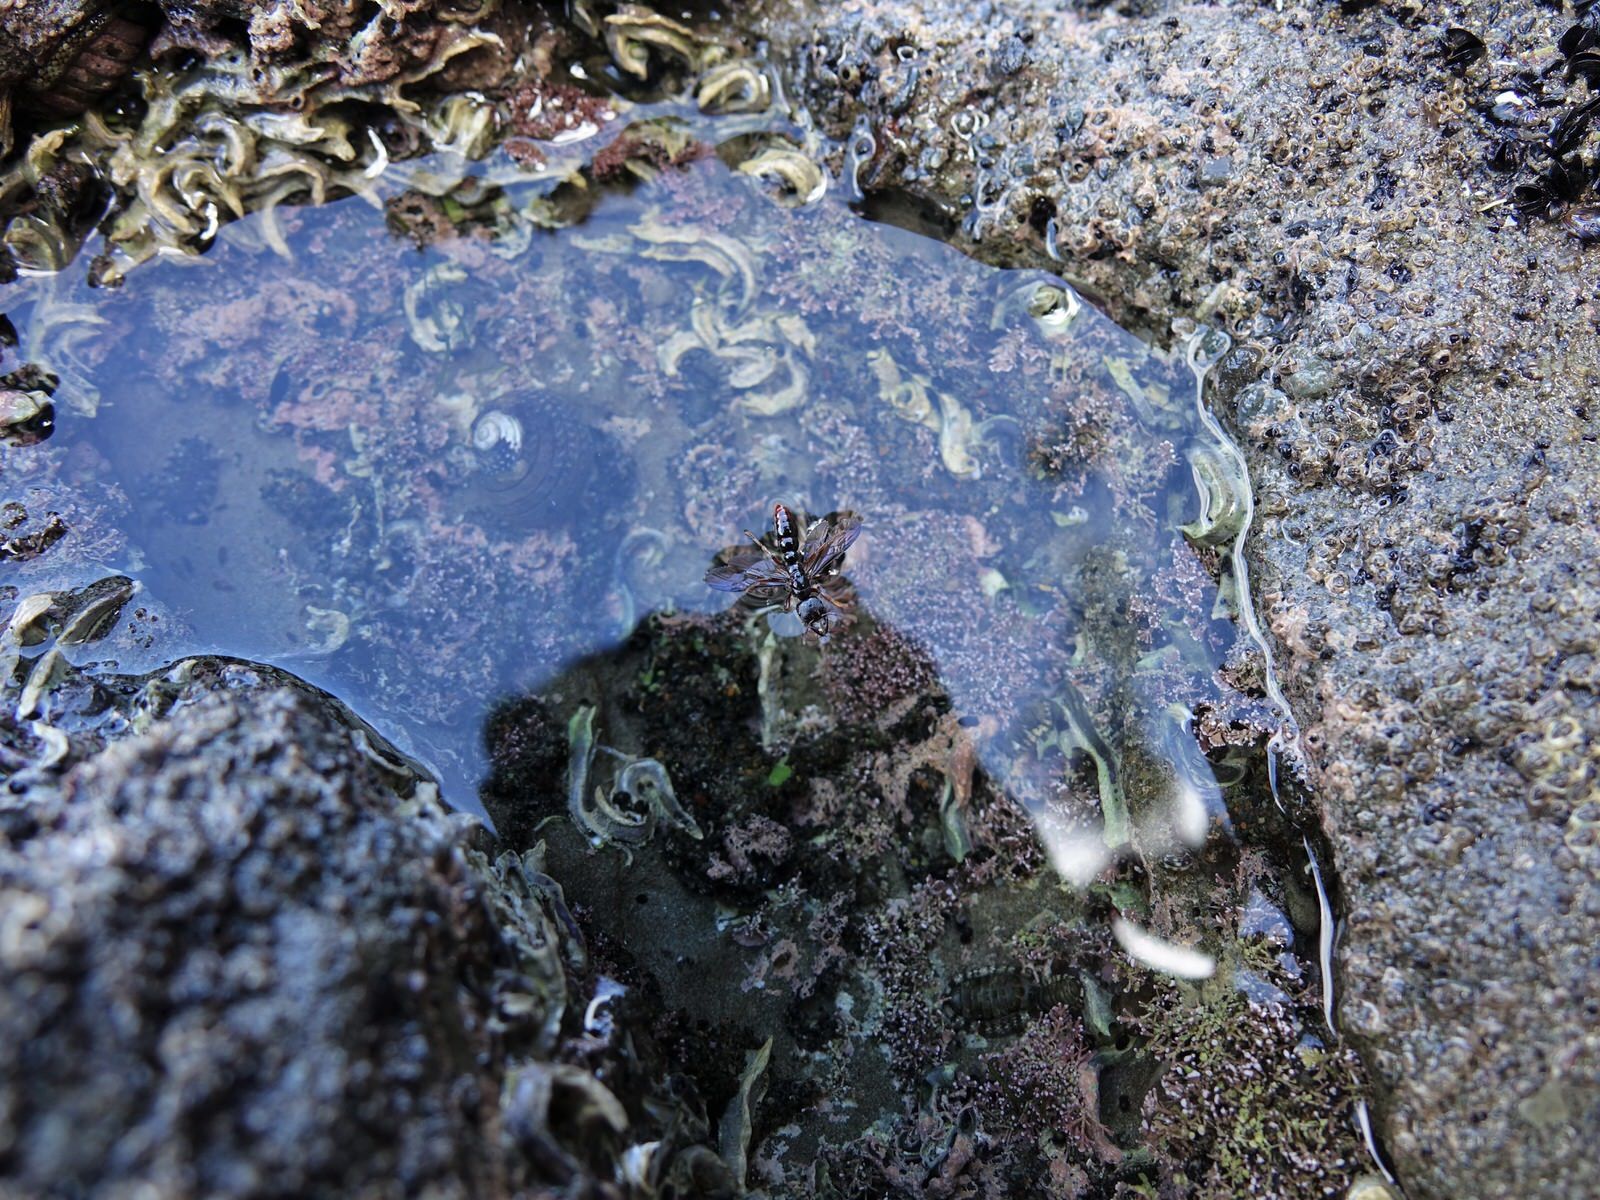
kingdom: Animalia
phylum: Arthropoda
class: Insecta
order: Hymenoptera
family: Formicidae
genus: Amblyopone
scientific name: Amblyopone australis
